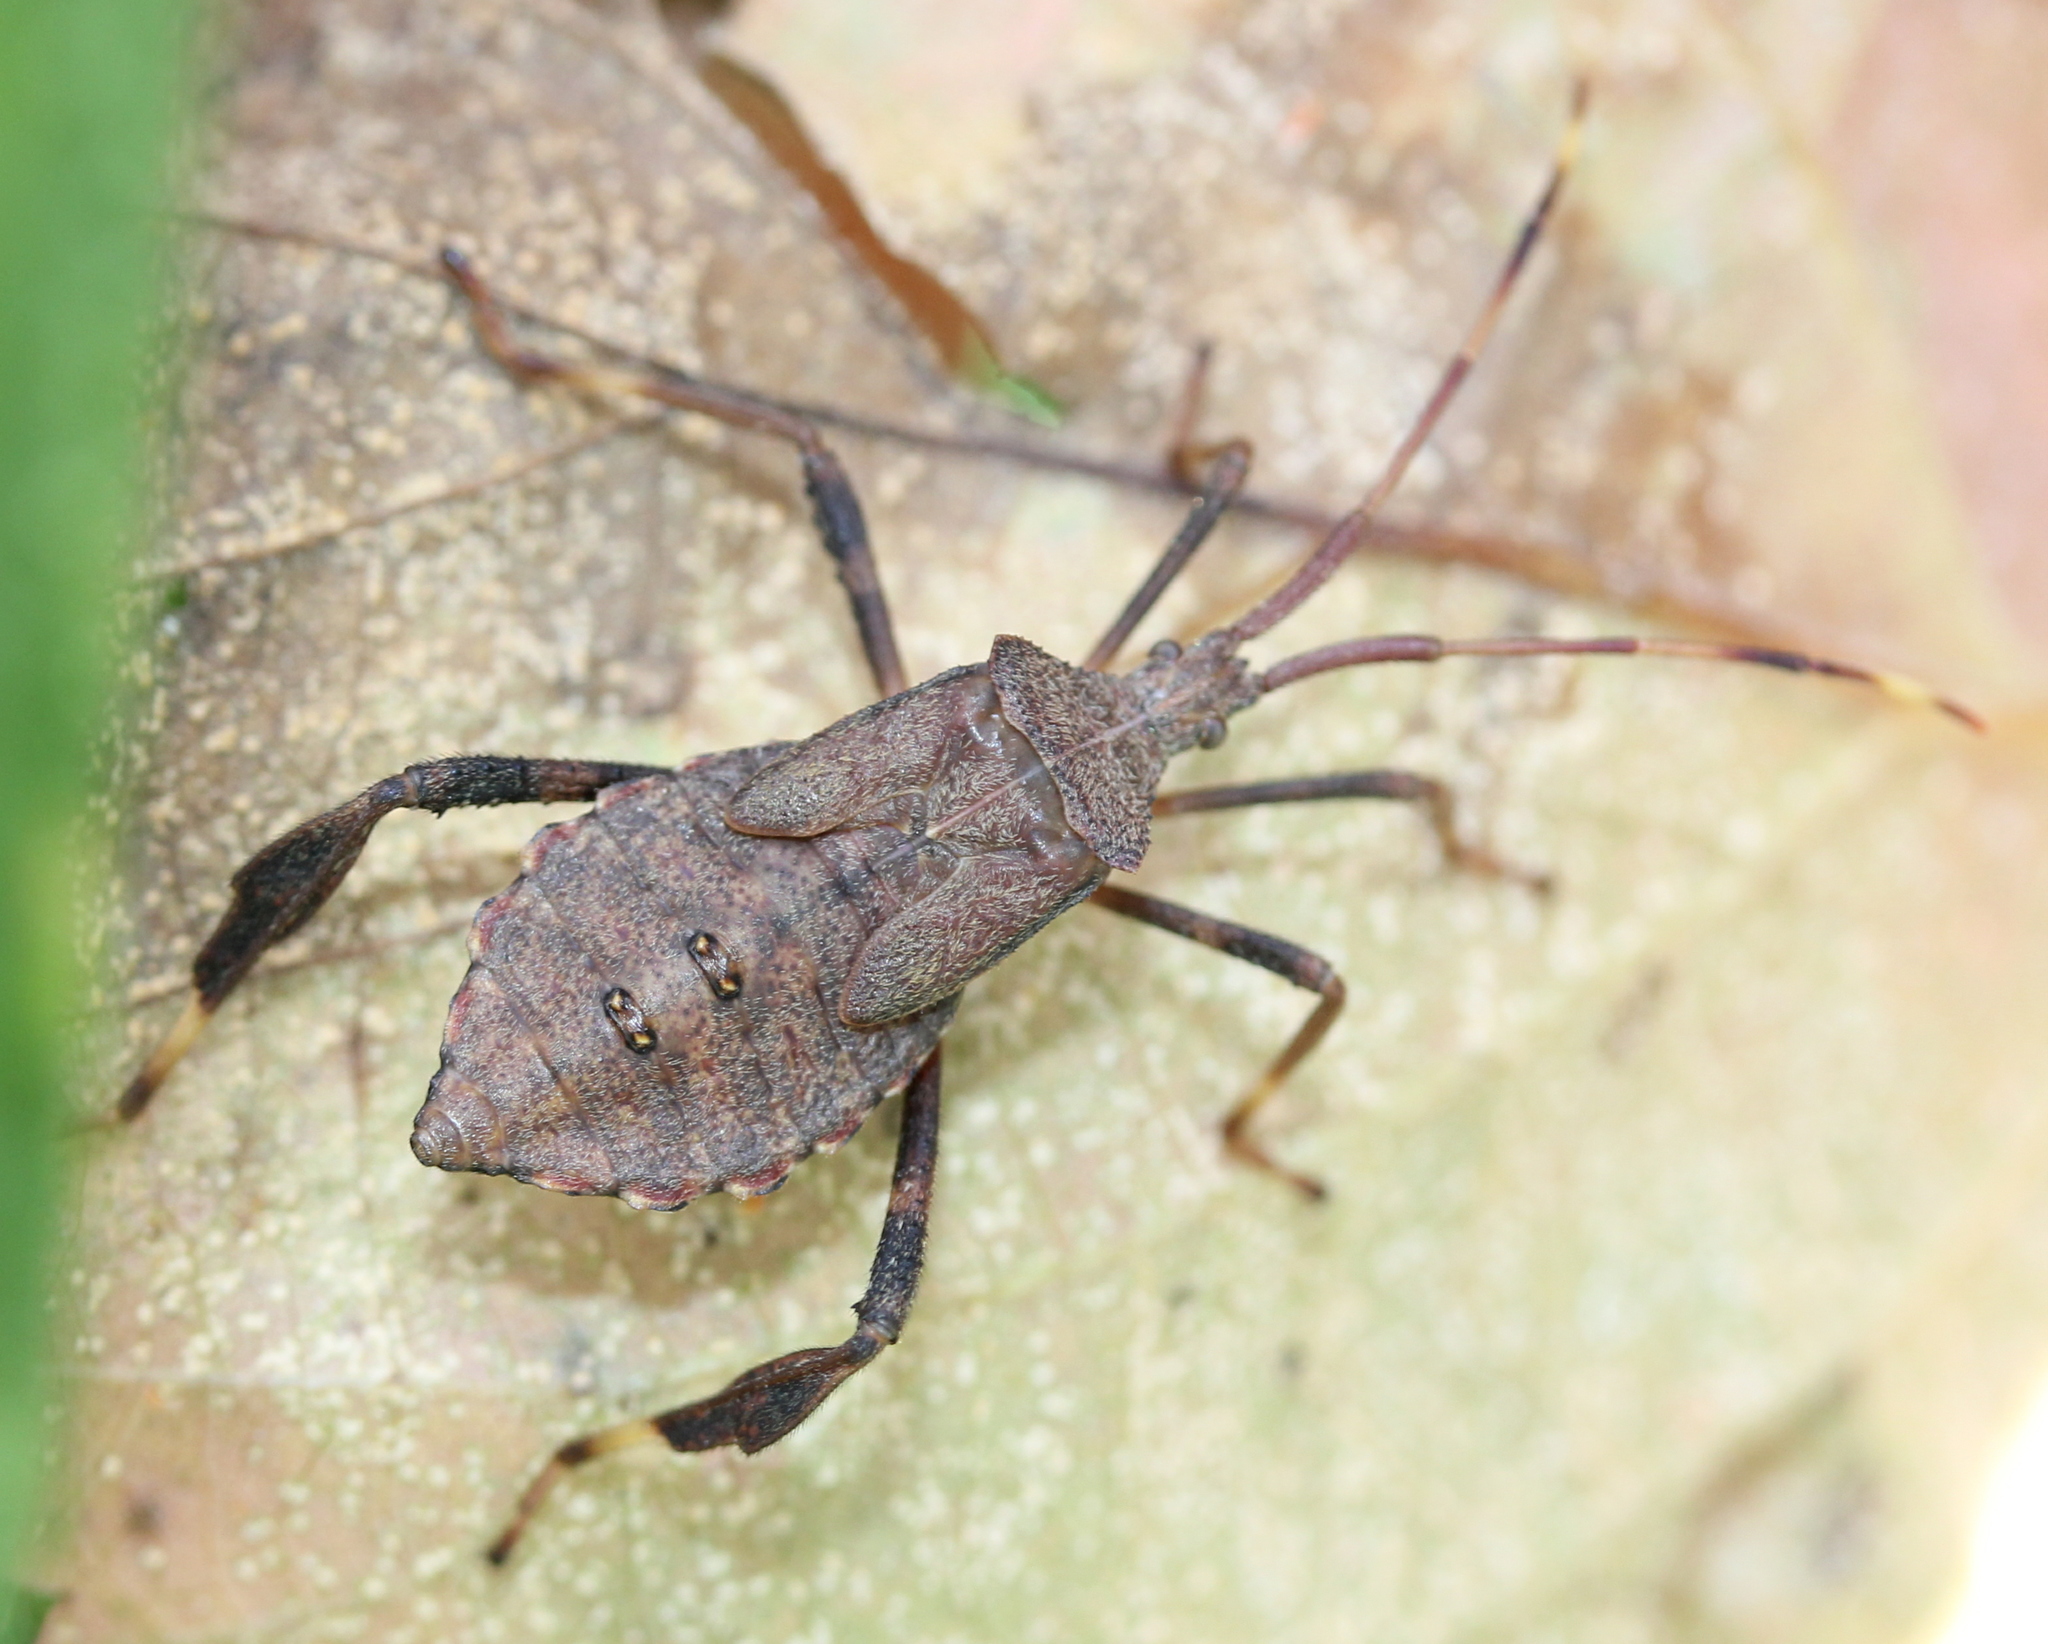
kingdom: Animalia
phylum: Arthropoda
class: Insecta
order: Hemiptera
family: Coreidae
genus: Acanthocephala
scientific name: Acanthocephala terminalis
